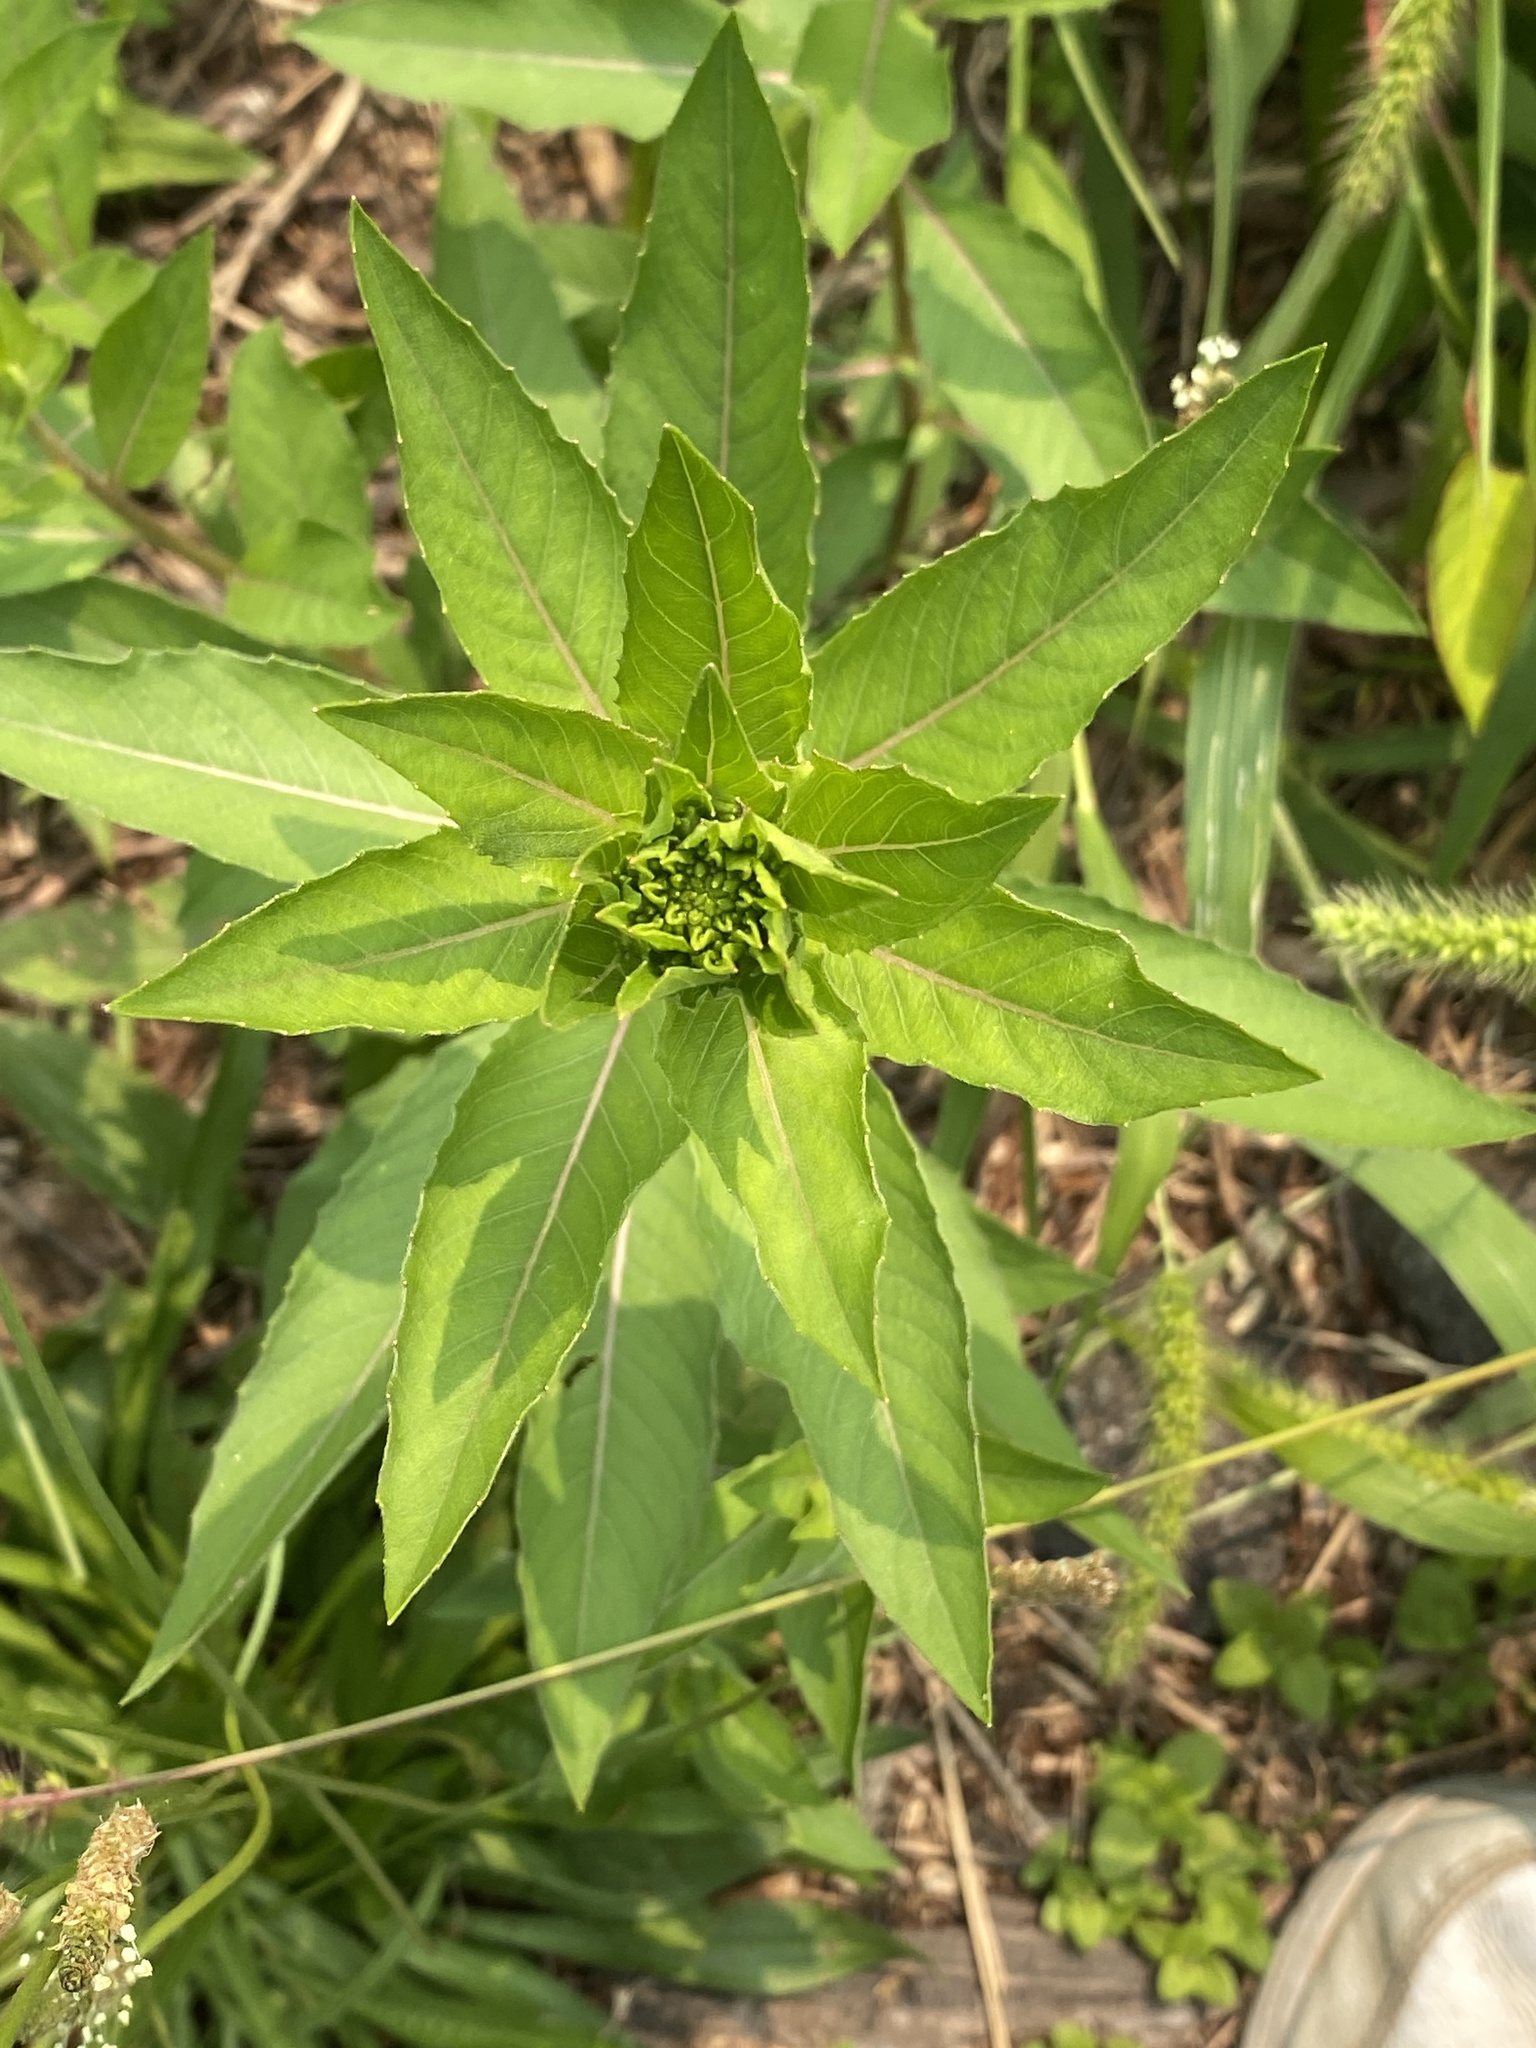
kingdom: Plantae
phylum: Tracheophyta
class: Magnoliopsida
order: Myrtales
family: Onagraceae
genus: Oenothera
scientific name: Oenothera biennis
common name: Common evening-primrose
